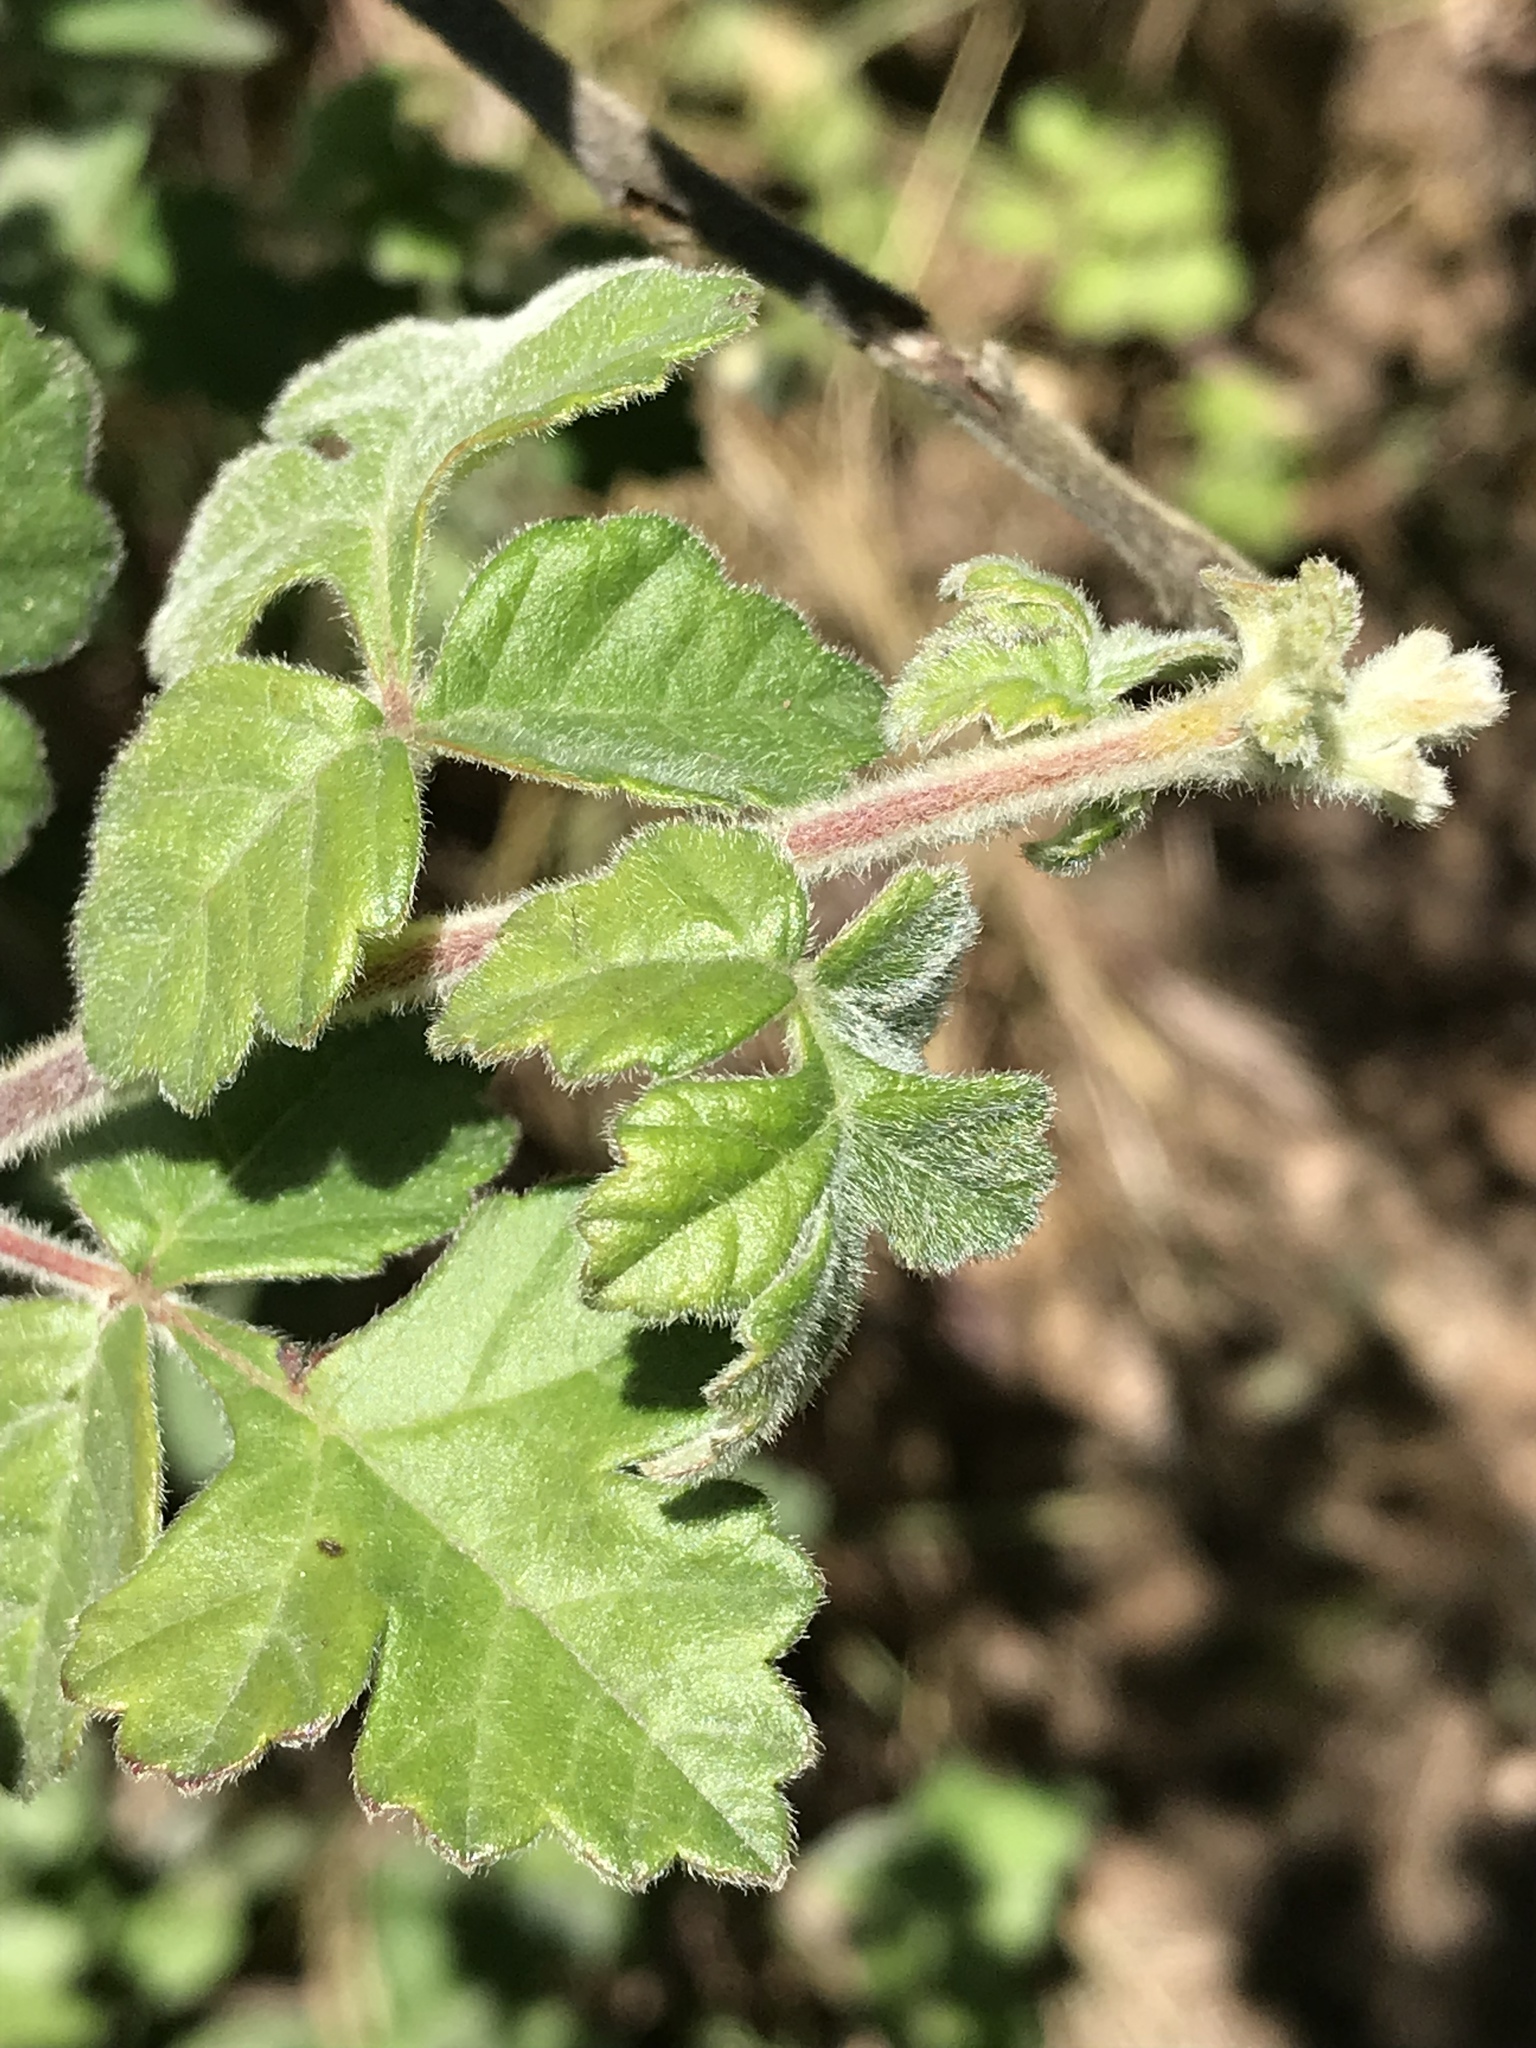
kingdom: Plantae
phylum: Tracheophyta
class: Magnoliopsida
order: Sapindales
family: Anacardiaceae
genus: Rhus
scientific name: Rhus aromatica
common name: Aromatic sumac
